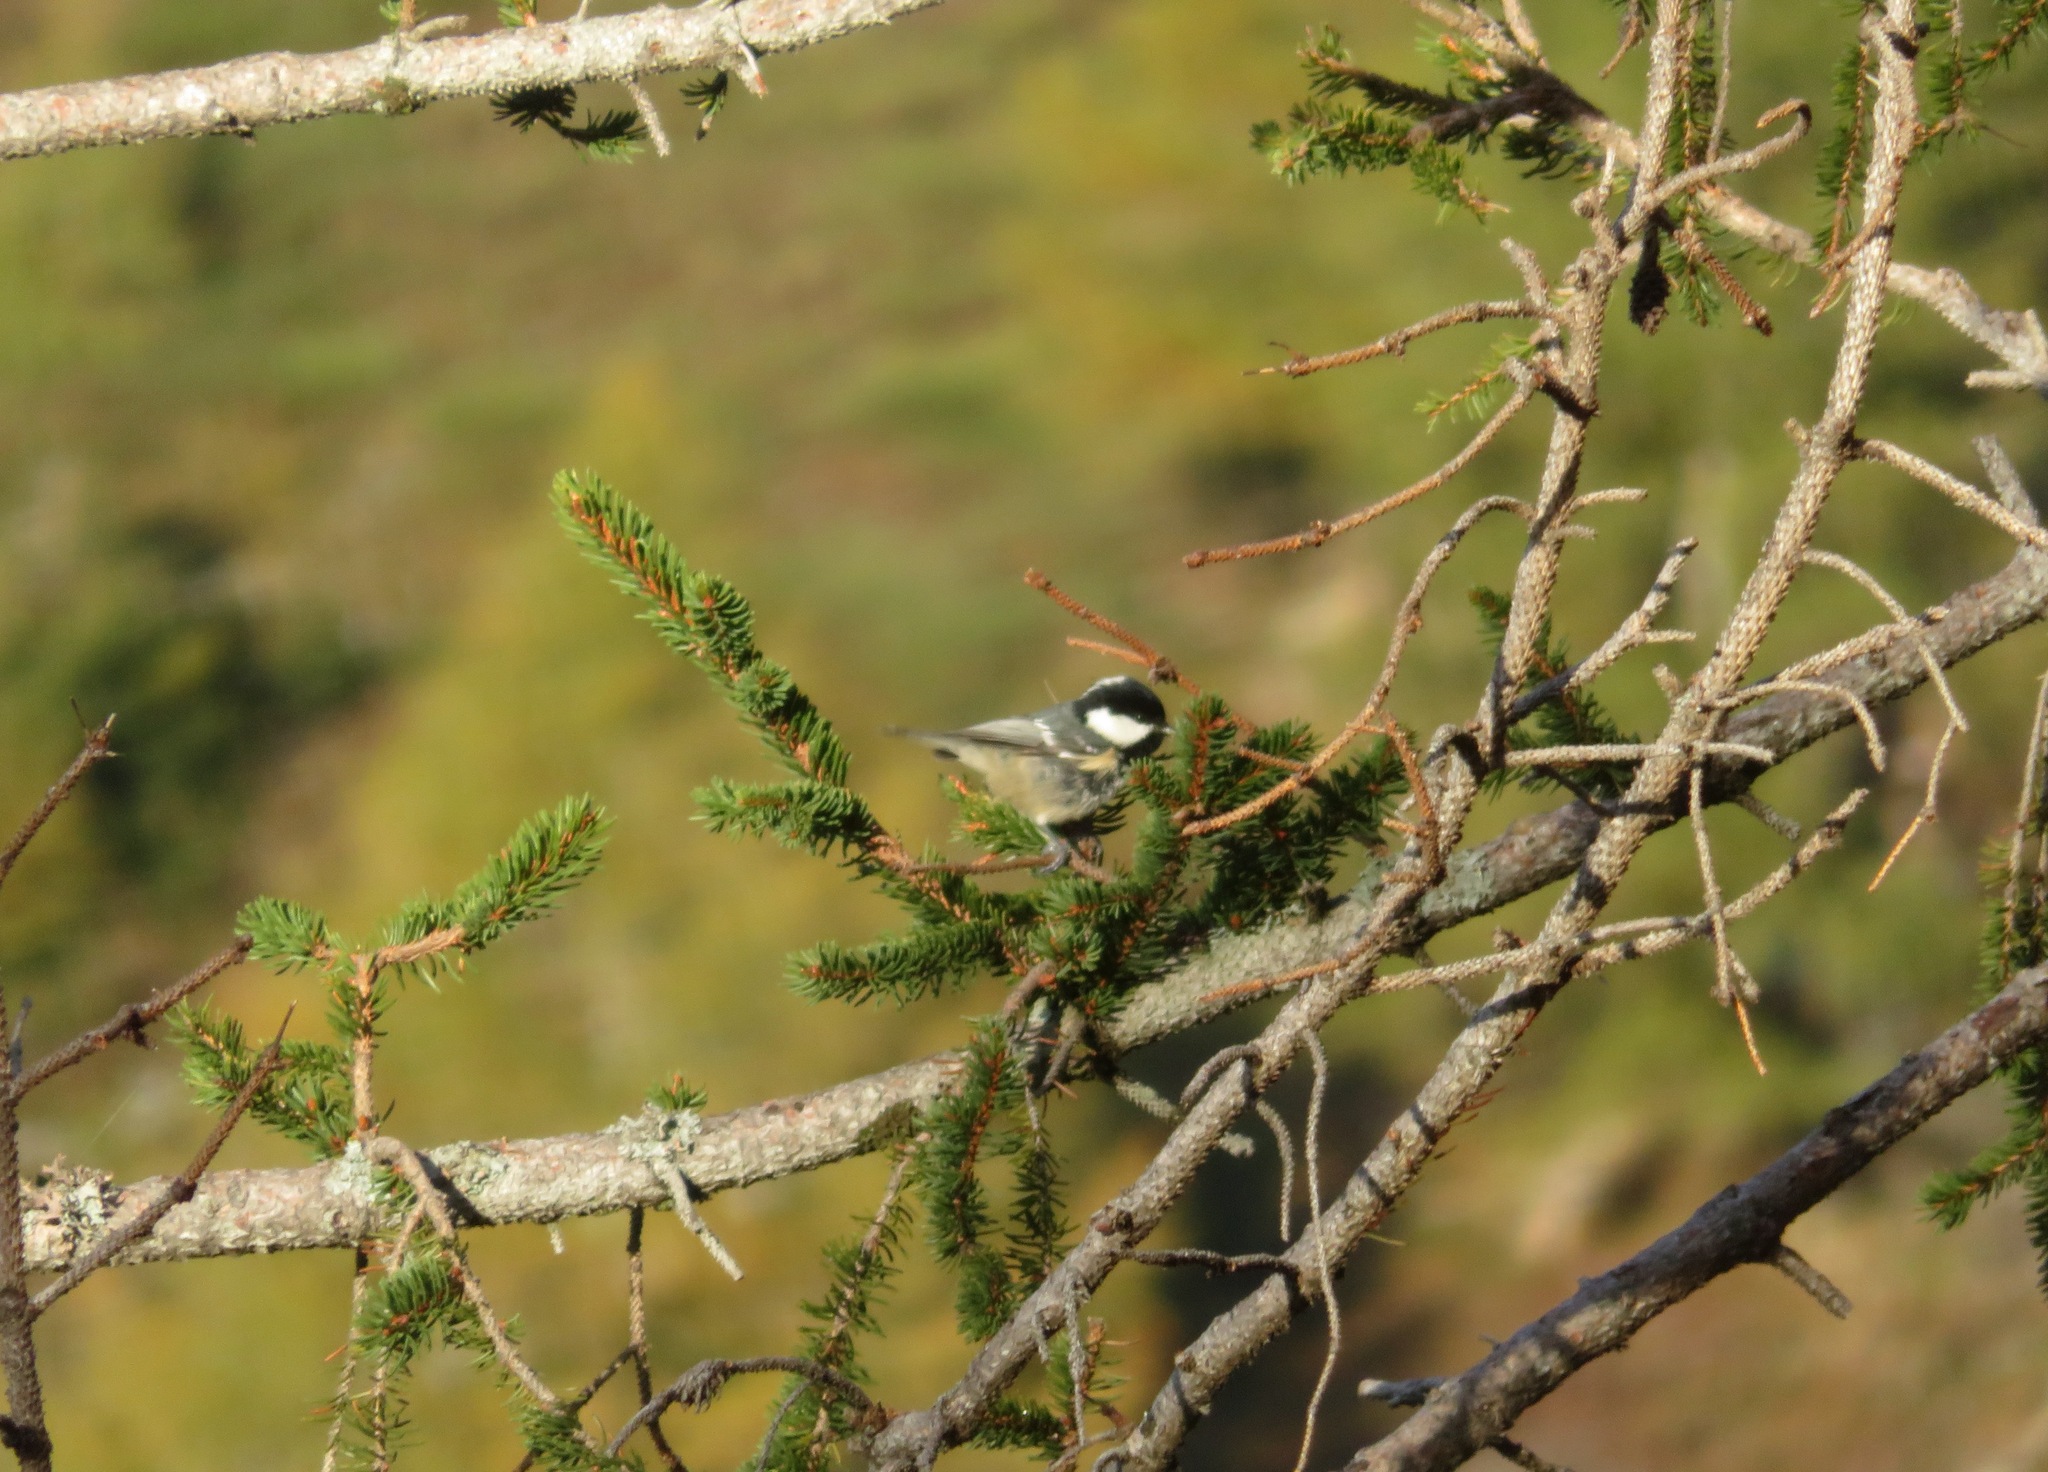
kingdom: Animalia
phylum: Chordata
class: Aves
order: Passeriformes
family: Paridae
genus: Periparus
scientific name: Periparus ater
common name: Coal tit
